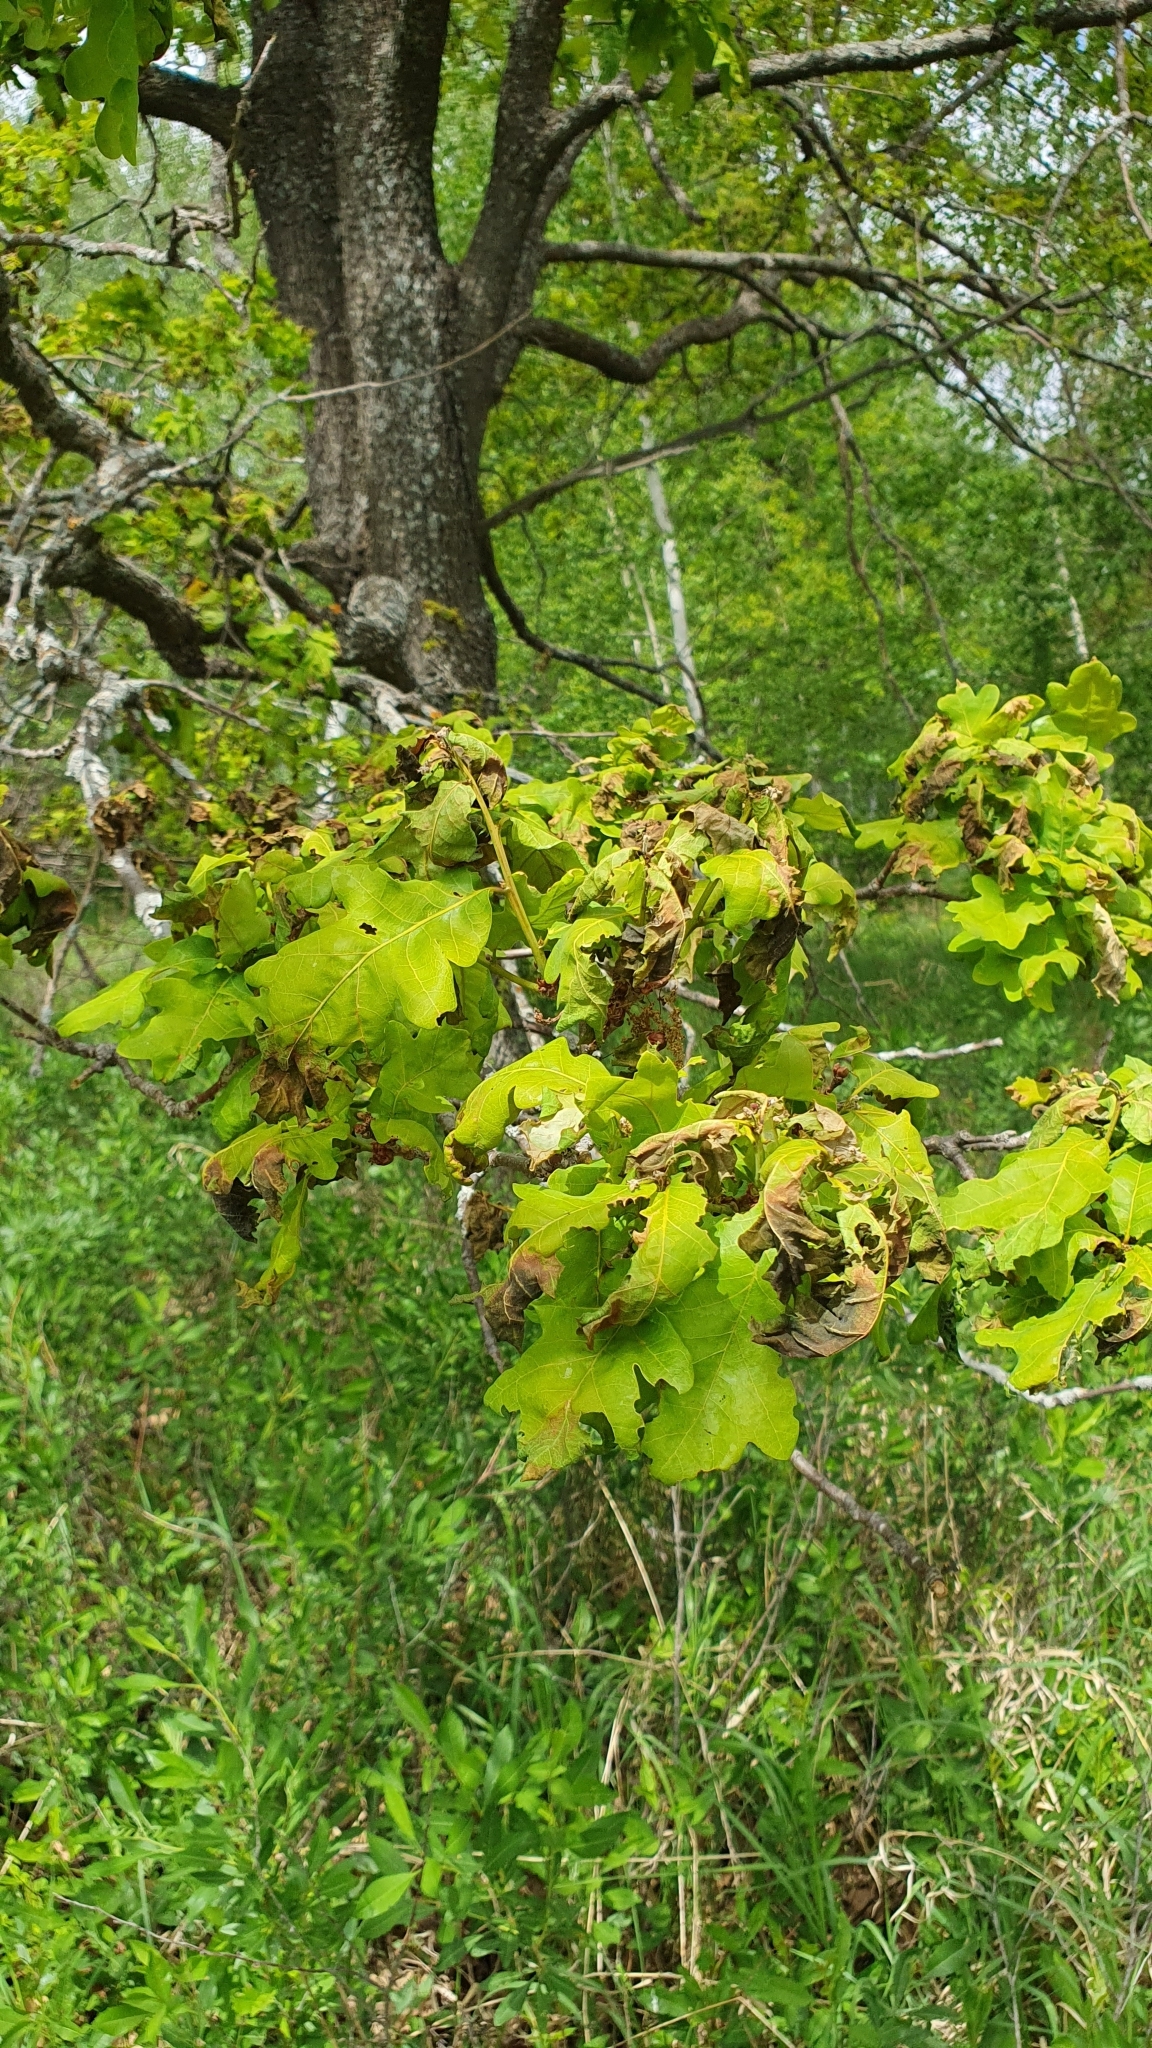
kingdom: Plantae
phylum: Tracheophyta
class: Magnoliopsida
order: Fagales
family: Fagaceae
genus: Quercus
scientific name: Quercus robur
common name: Pedunculate oak
